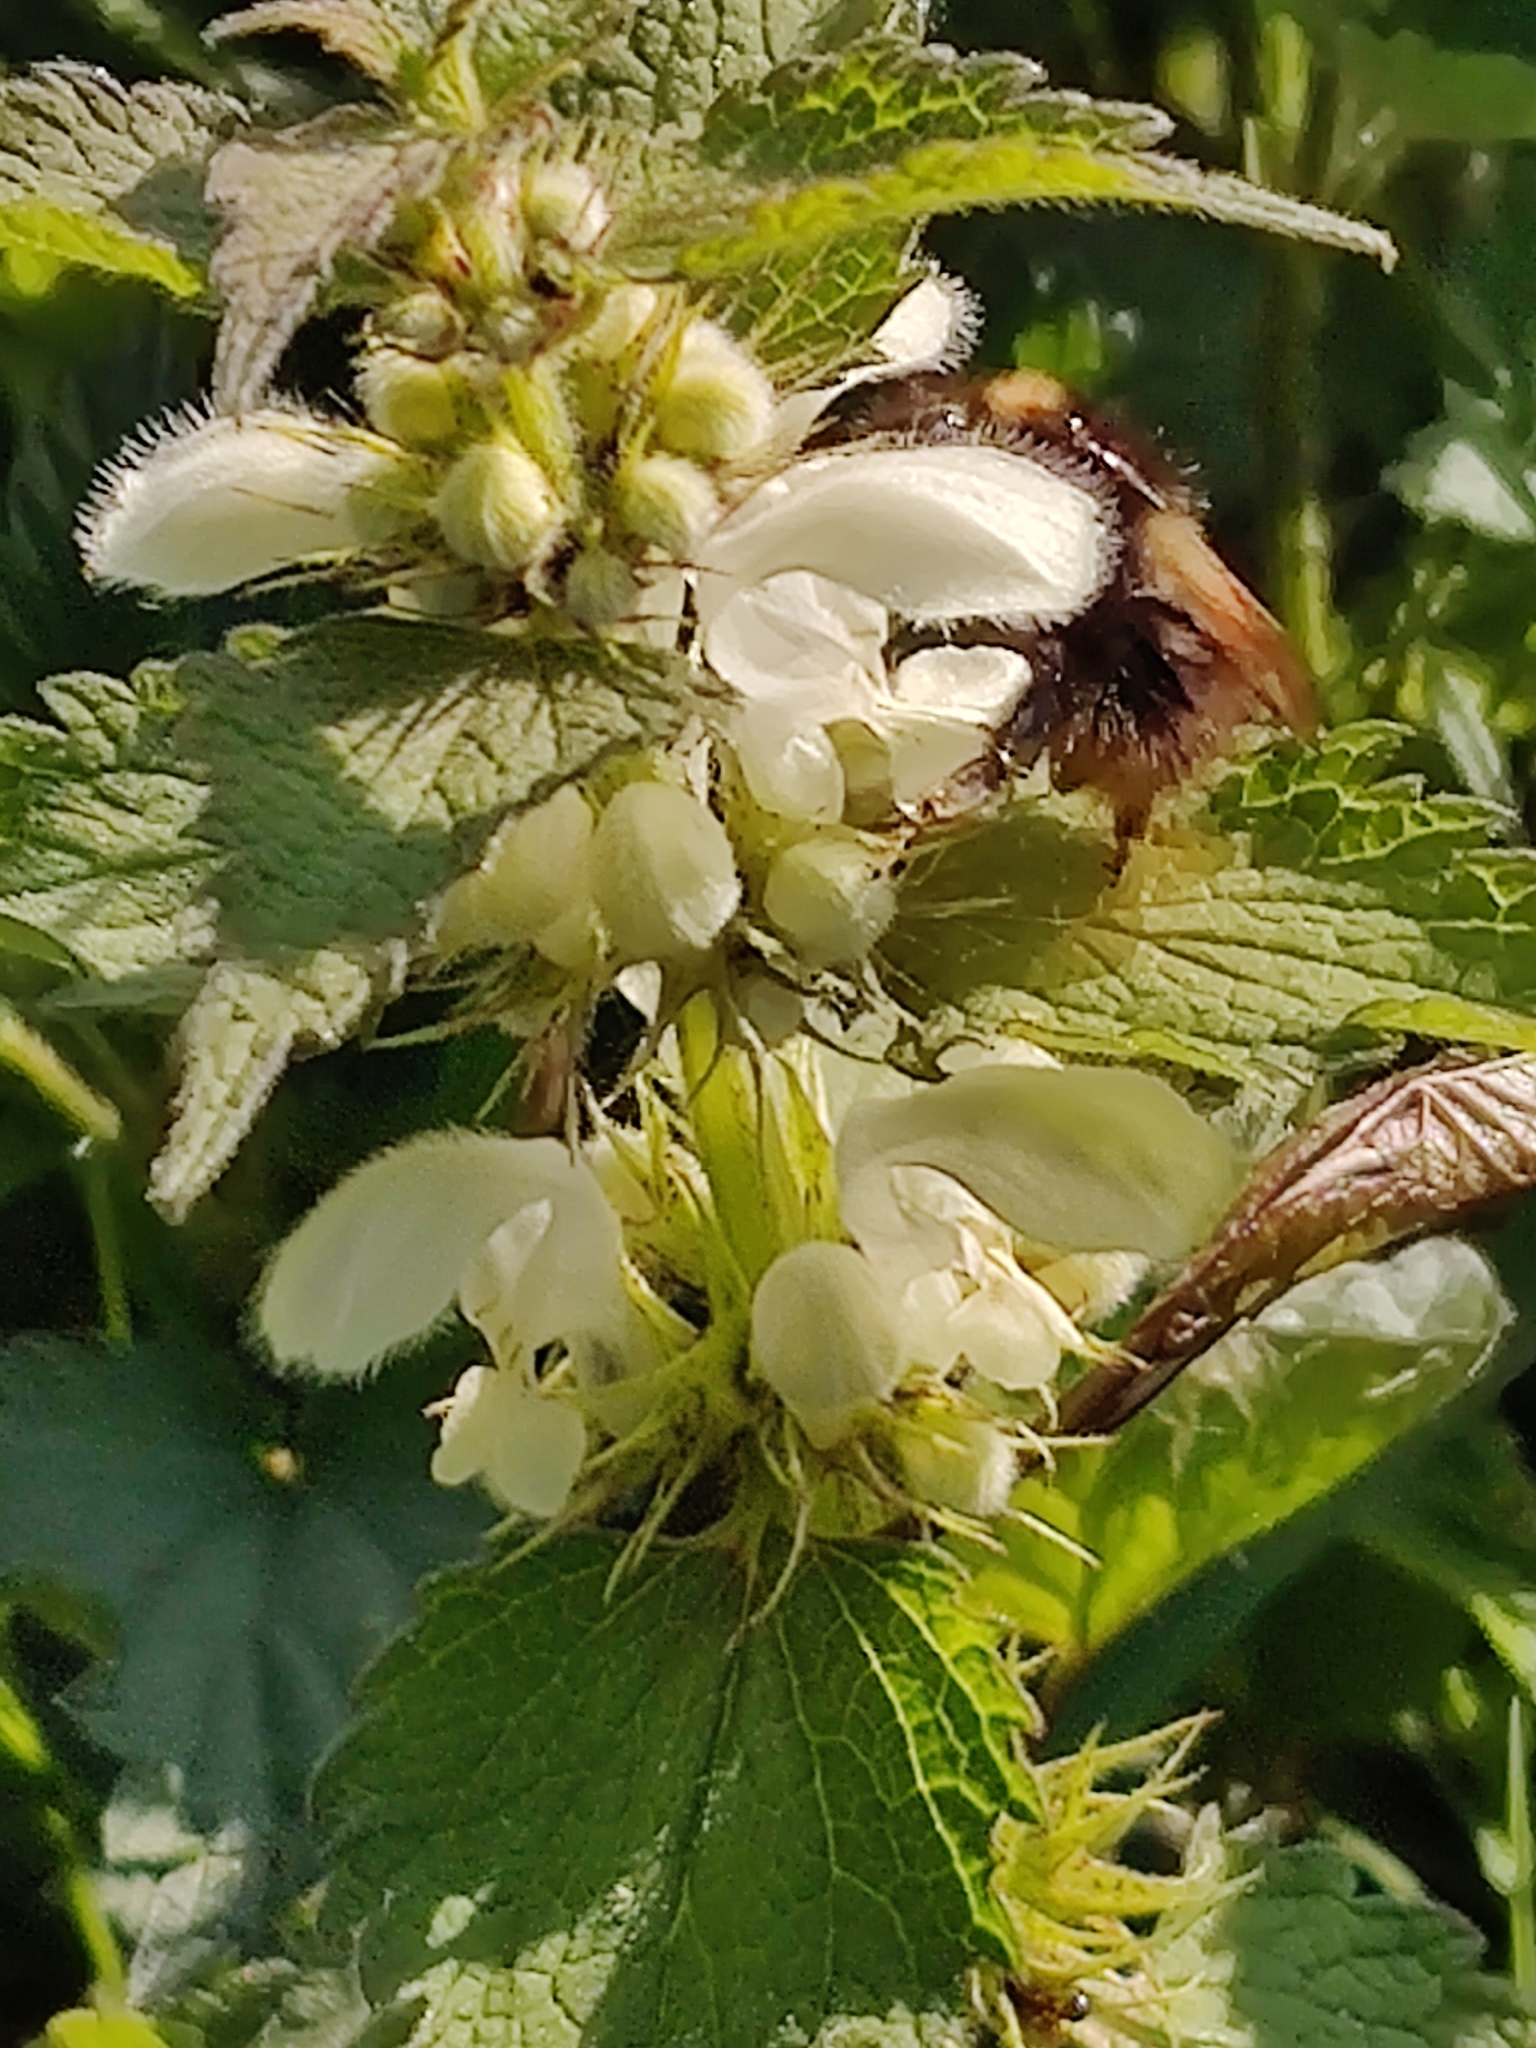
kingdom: Animalia
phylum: Arthropoda
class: Insecta
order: Hymenoptera
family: Apidae
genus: Bombus
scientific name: Bombus pratorum
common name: Early humble-bee
